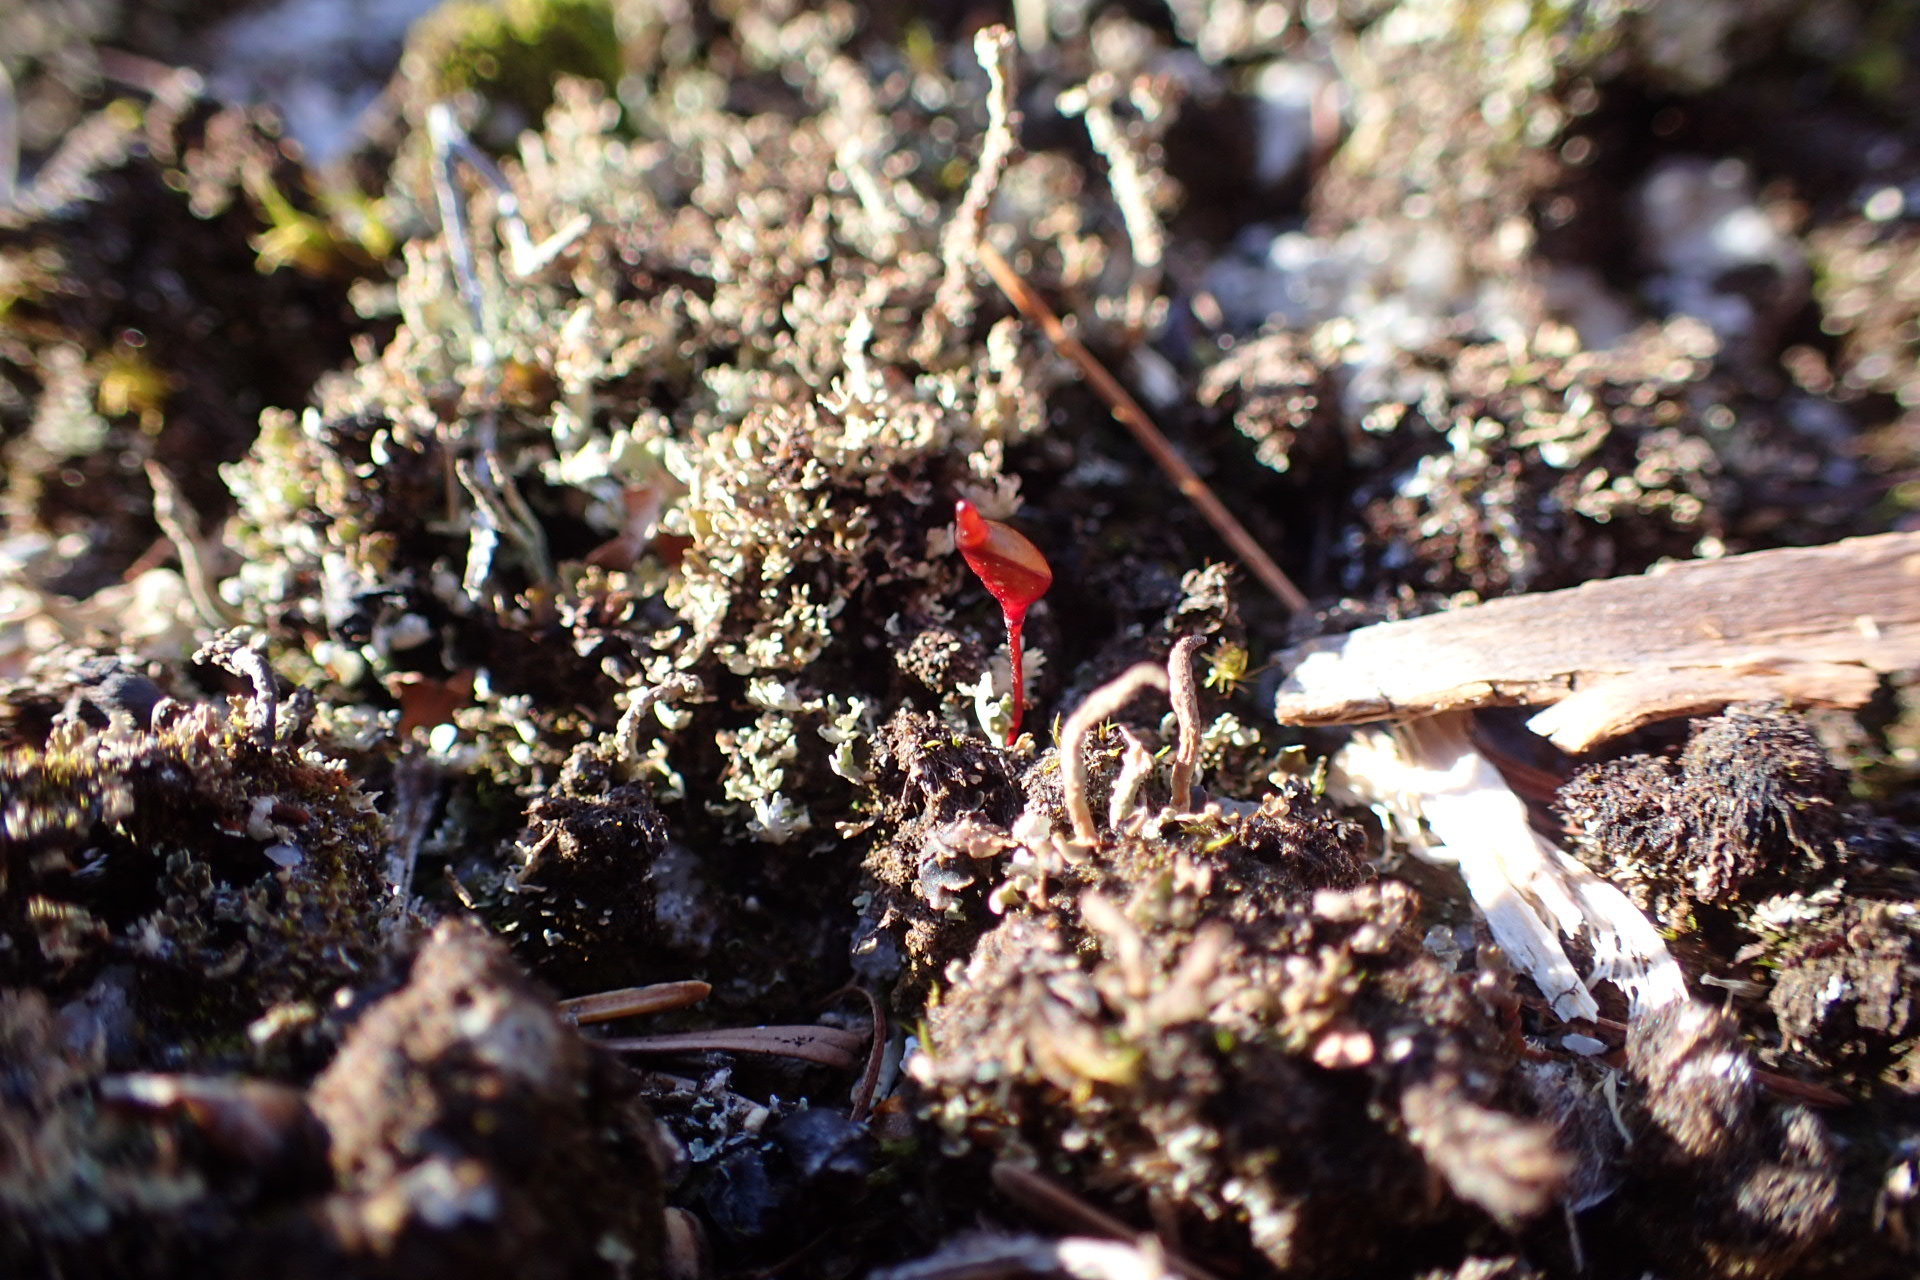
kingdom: Plantae
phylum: Bryophyta
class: Bryopsida
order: Buxbaumiales
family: Buxbaumiaceae
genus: Buxbaumia
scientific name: Buxbaumia aphylla
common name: Brown shield-moss
